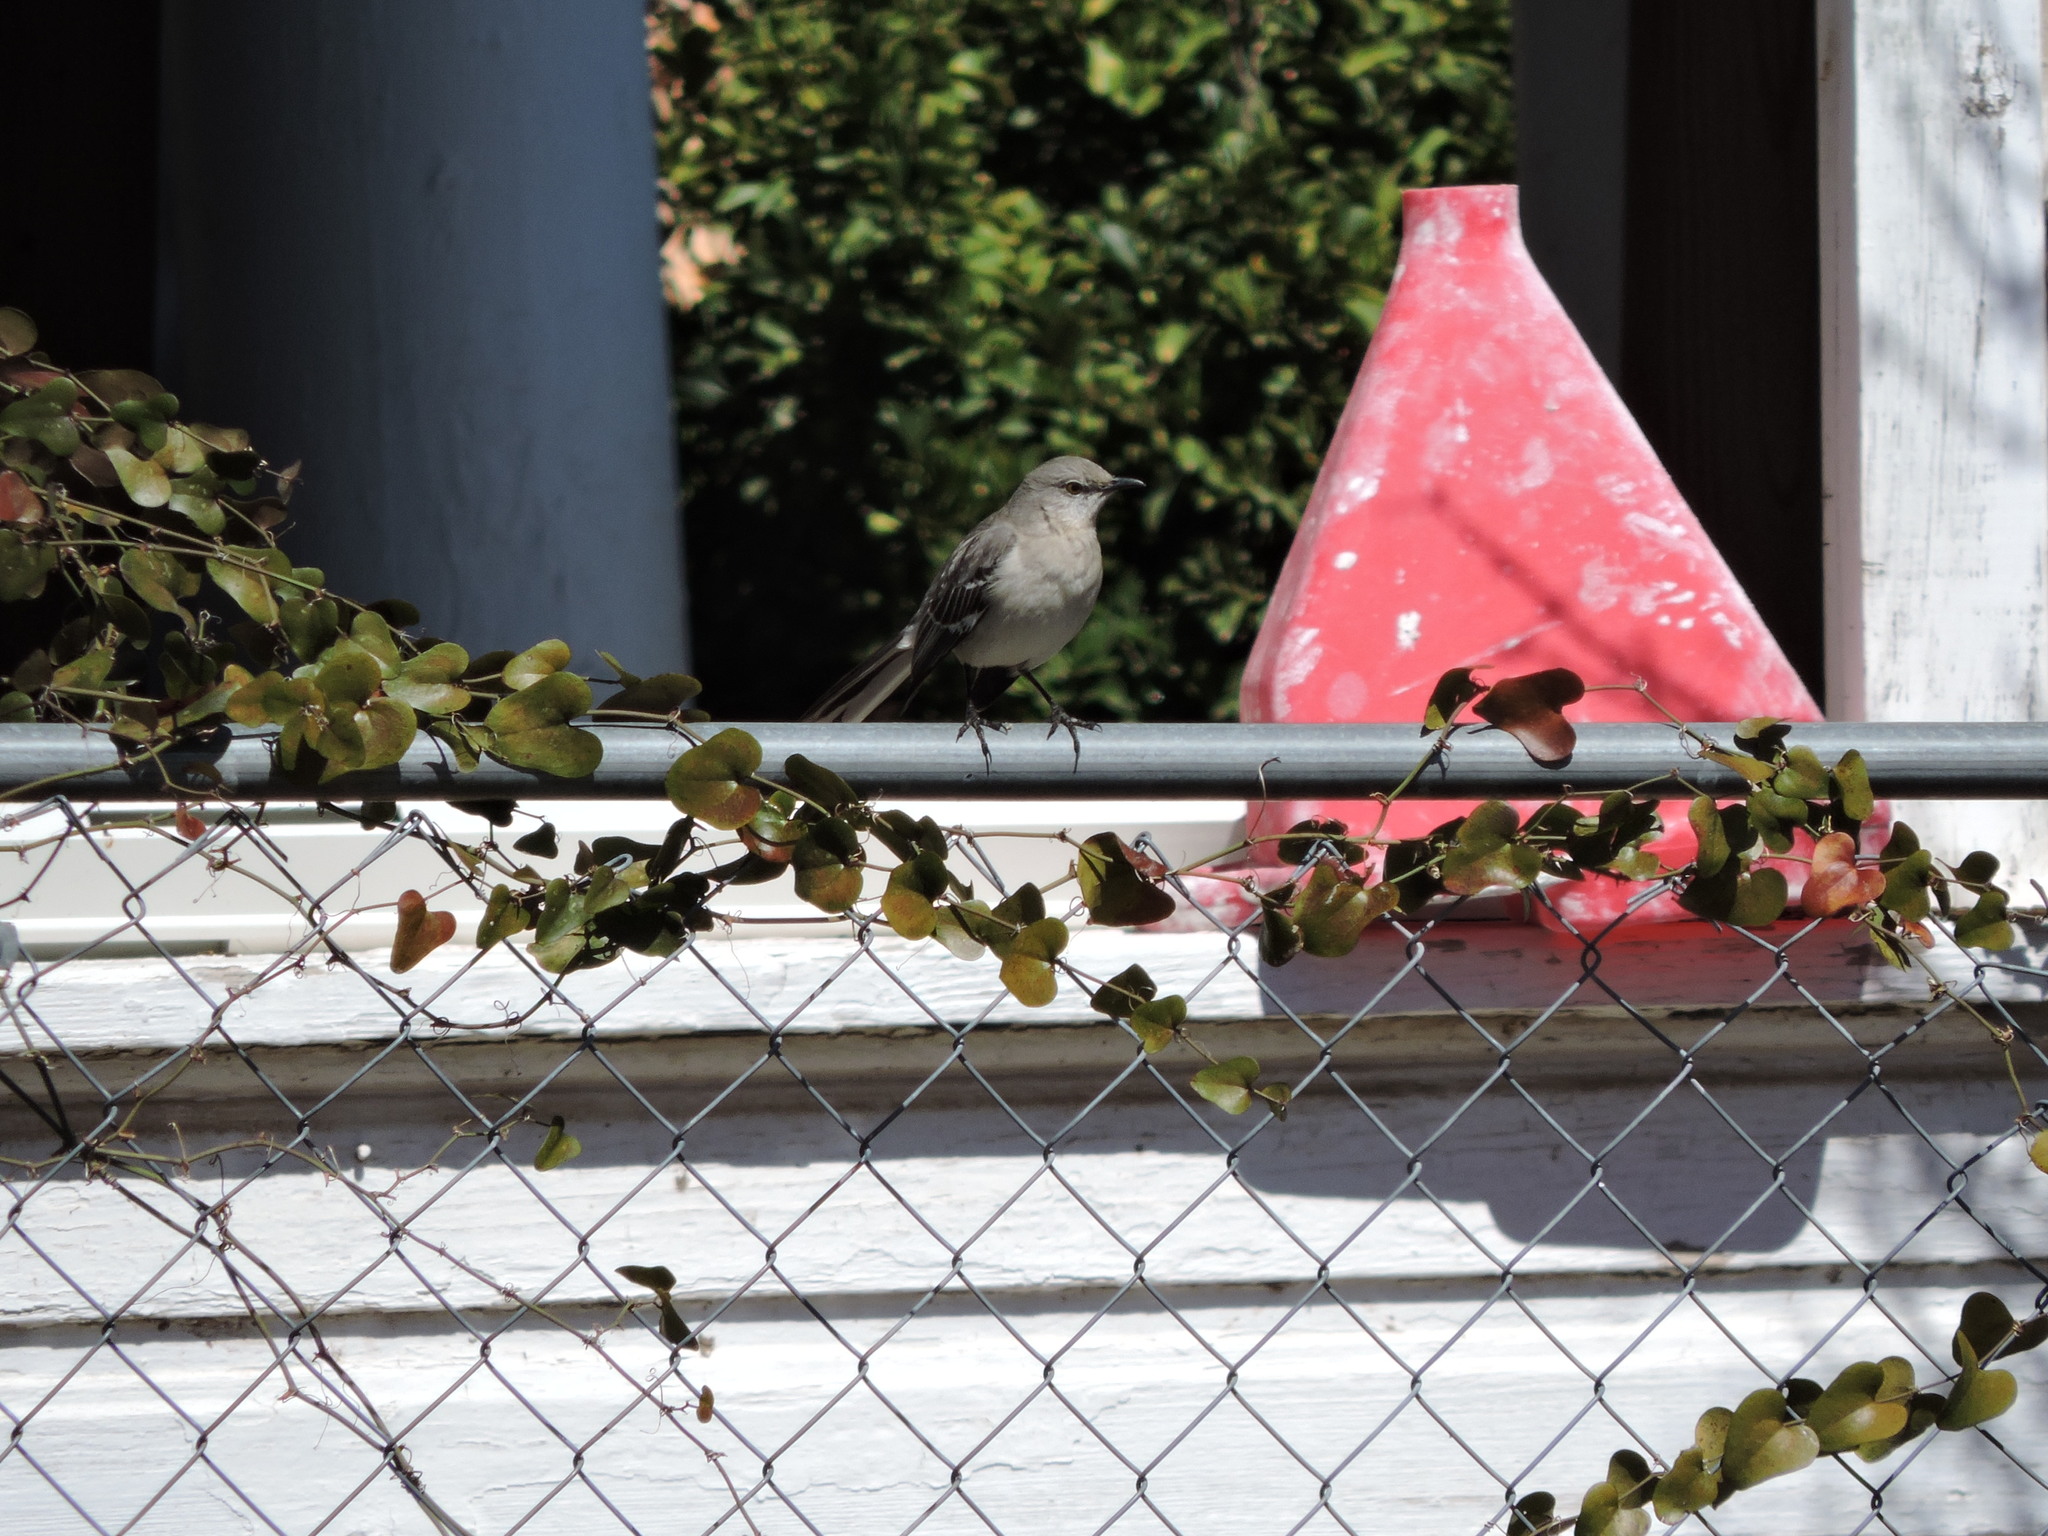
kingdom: Animalia
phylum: Chordata
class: Aves
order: Passeriformes
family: Mimidae
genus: Mimus
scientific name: Mimus polyglottos
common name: Northern mockingbird
